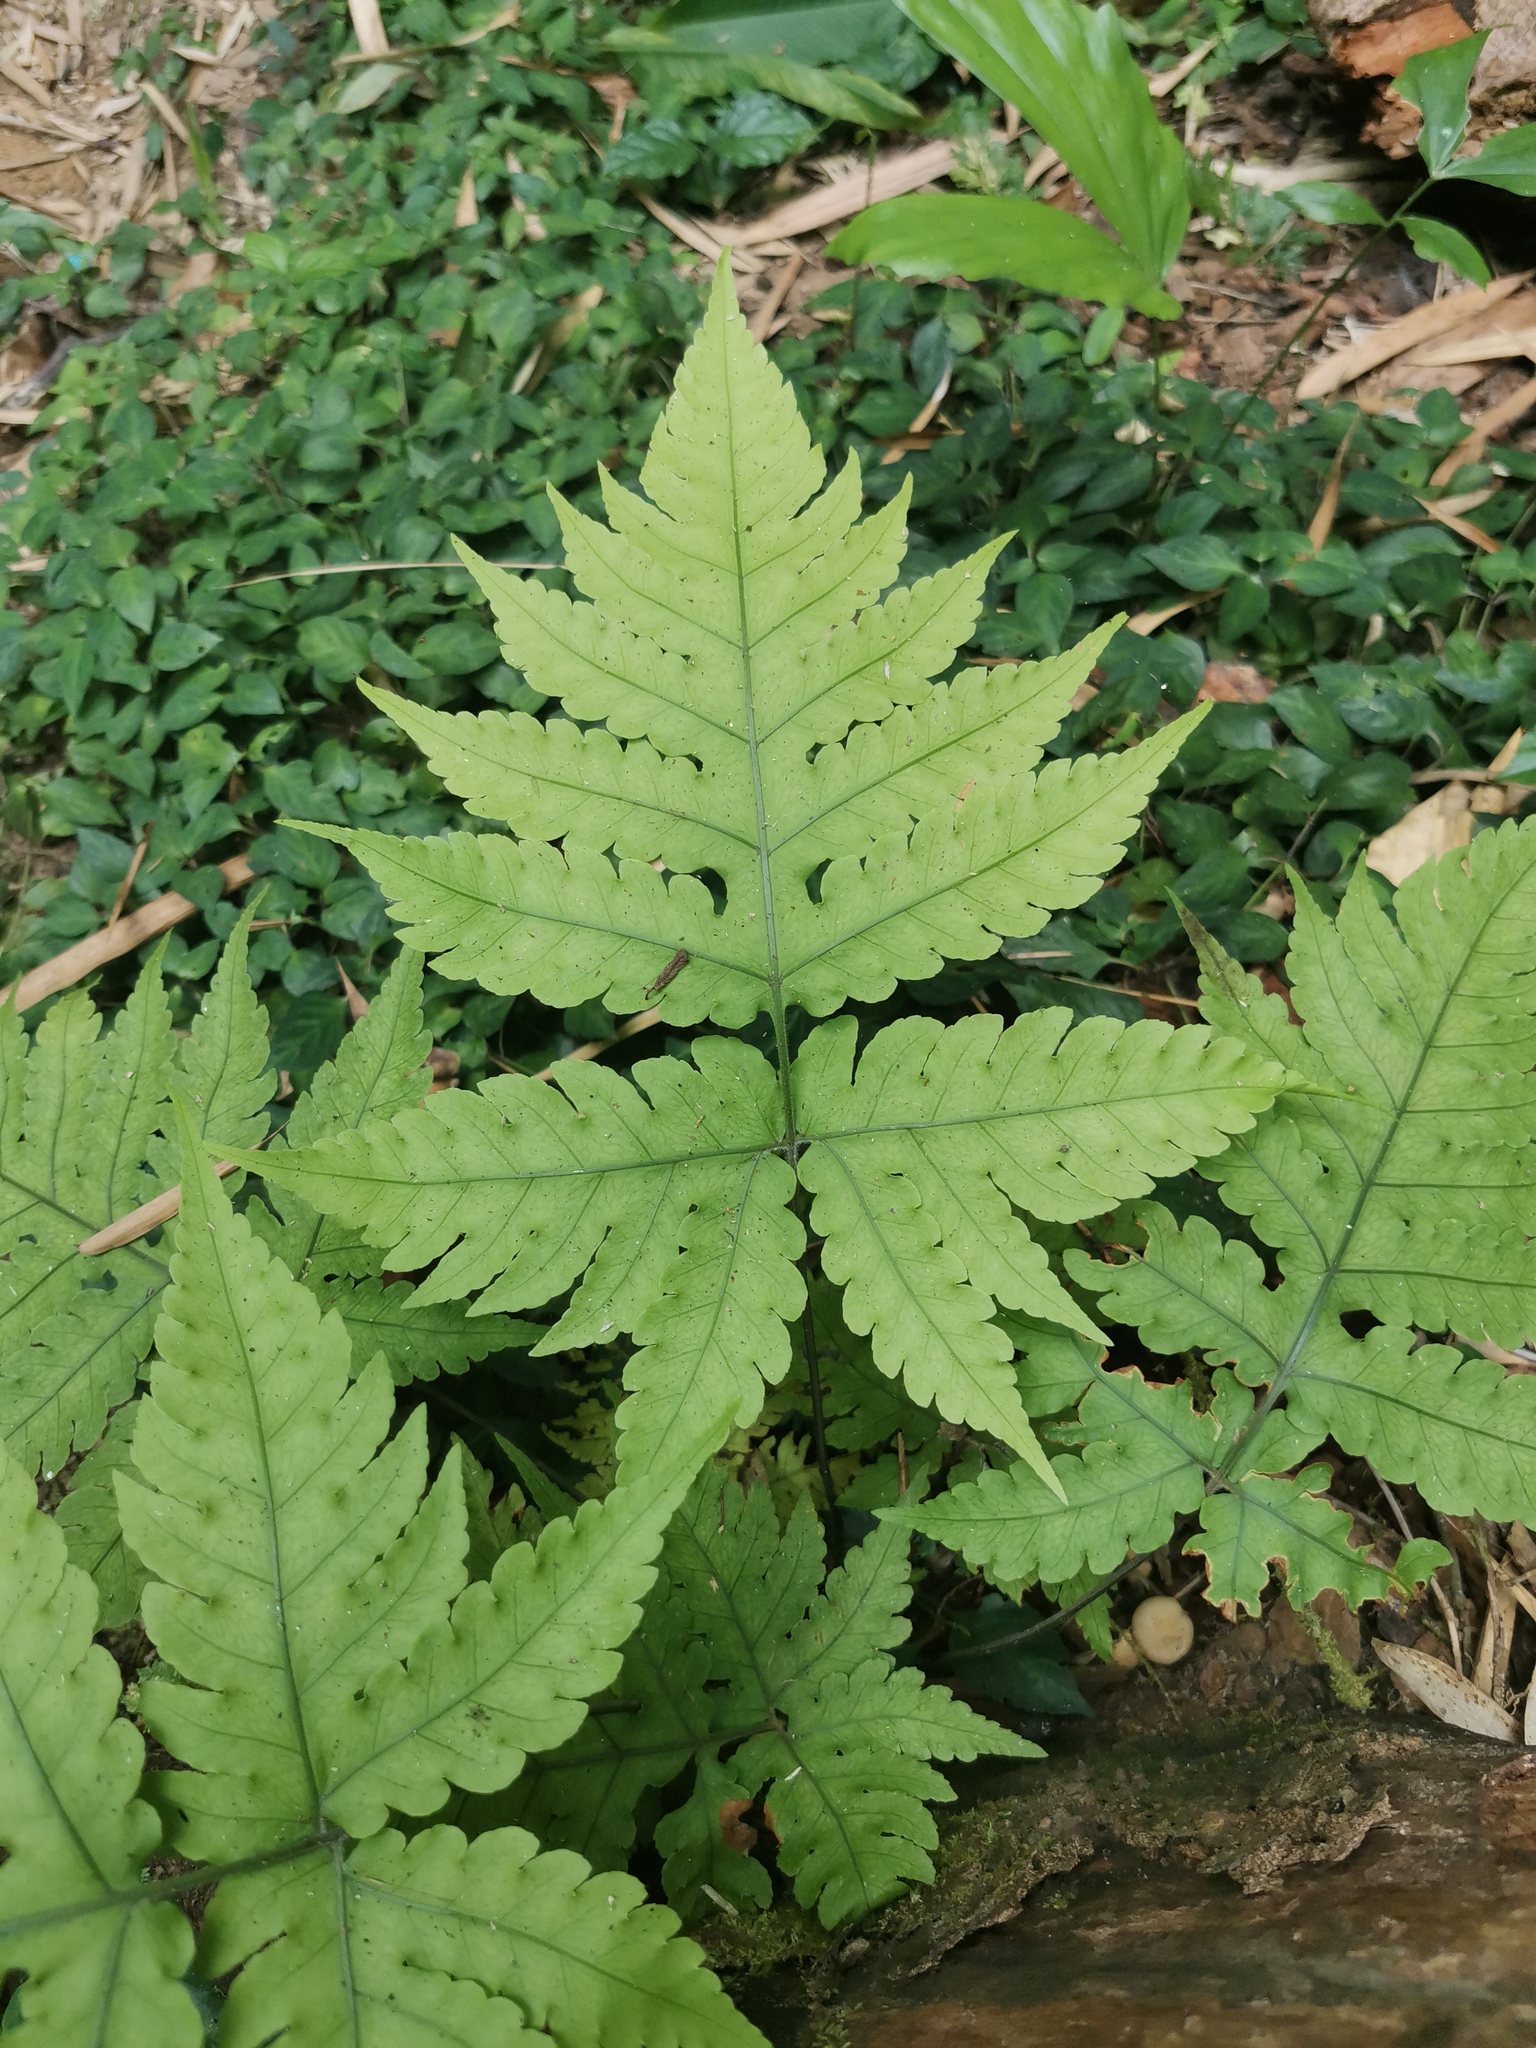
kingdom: Plantae
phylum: Tracheophyta
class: Polypodiopsida
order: Polypodiales
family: Dryopteridaceae
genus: Pleocnemia
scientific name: Pleocnemia irregularis
